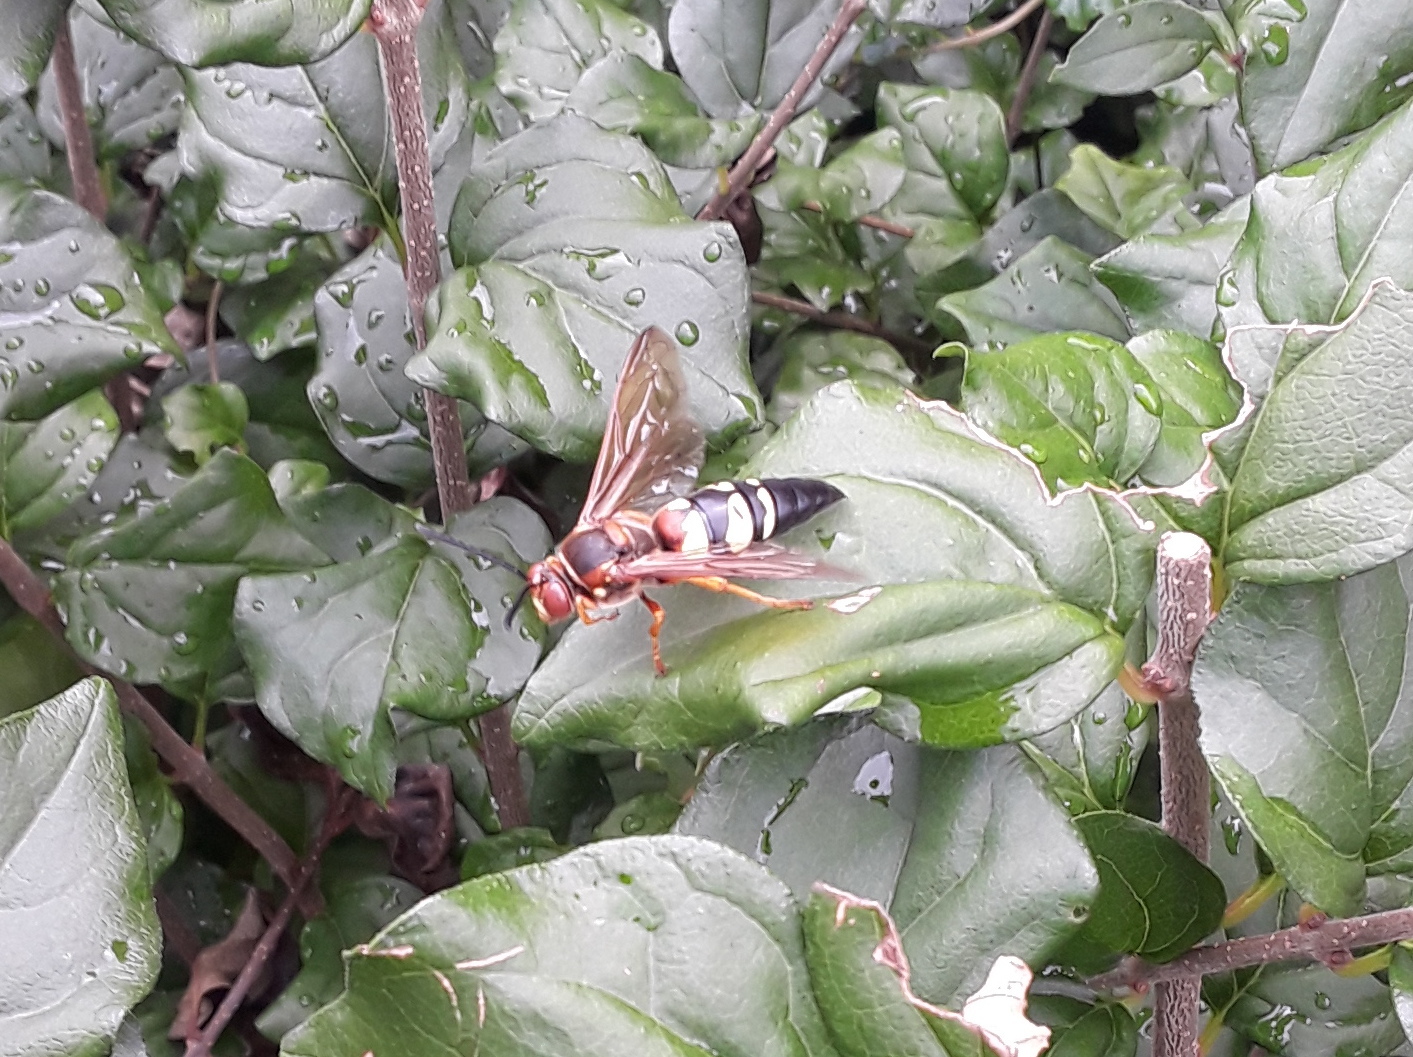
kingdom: Animalia
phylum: Arthropoda
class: Insecta
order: Hymenoptera
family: Crabronidae
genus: Sphecius
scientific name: Sphecius speciosus
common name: Cicada killer
